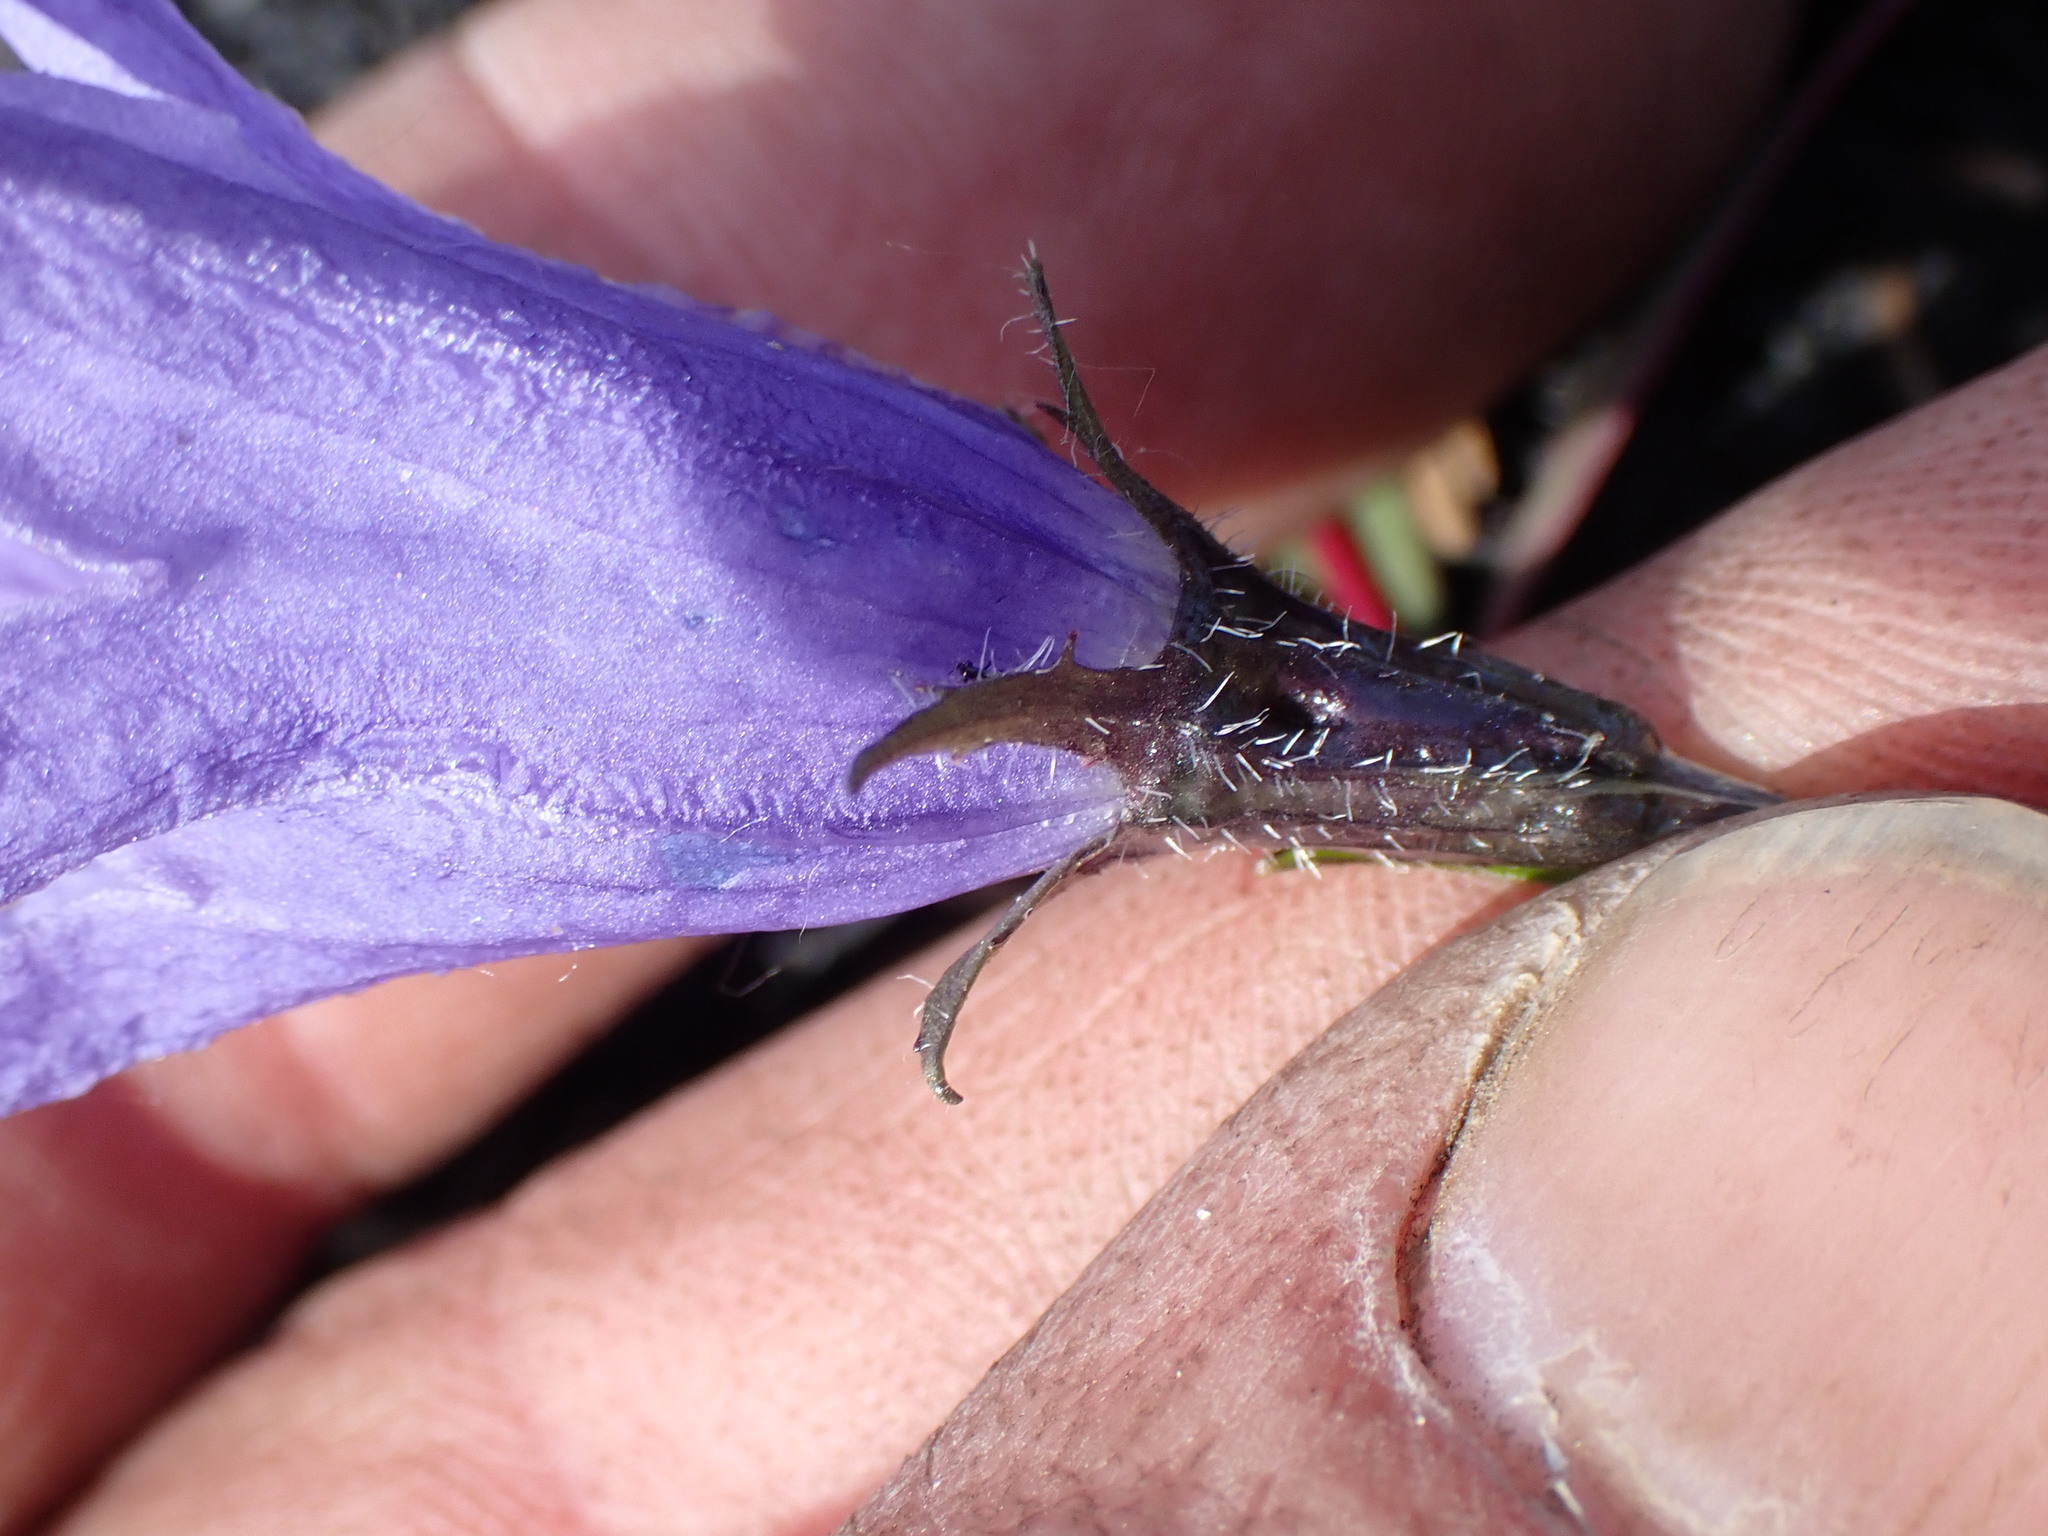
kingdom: Plantae
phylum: Tracheophyta
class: Magnoliopsida
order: Asterales
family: Campanulaceae
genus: Campanula
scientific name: Campanula lasiocarpa
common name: Mountain harebell
